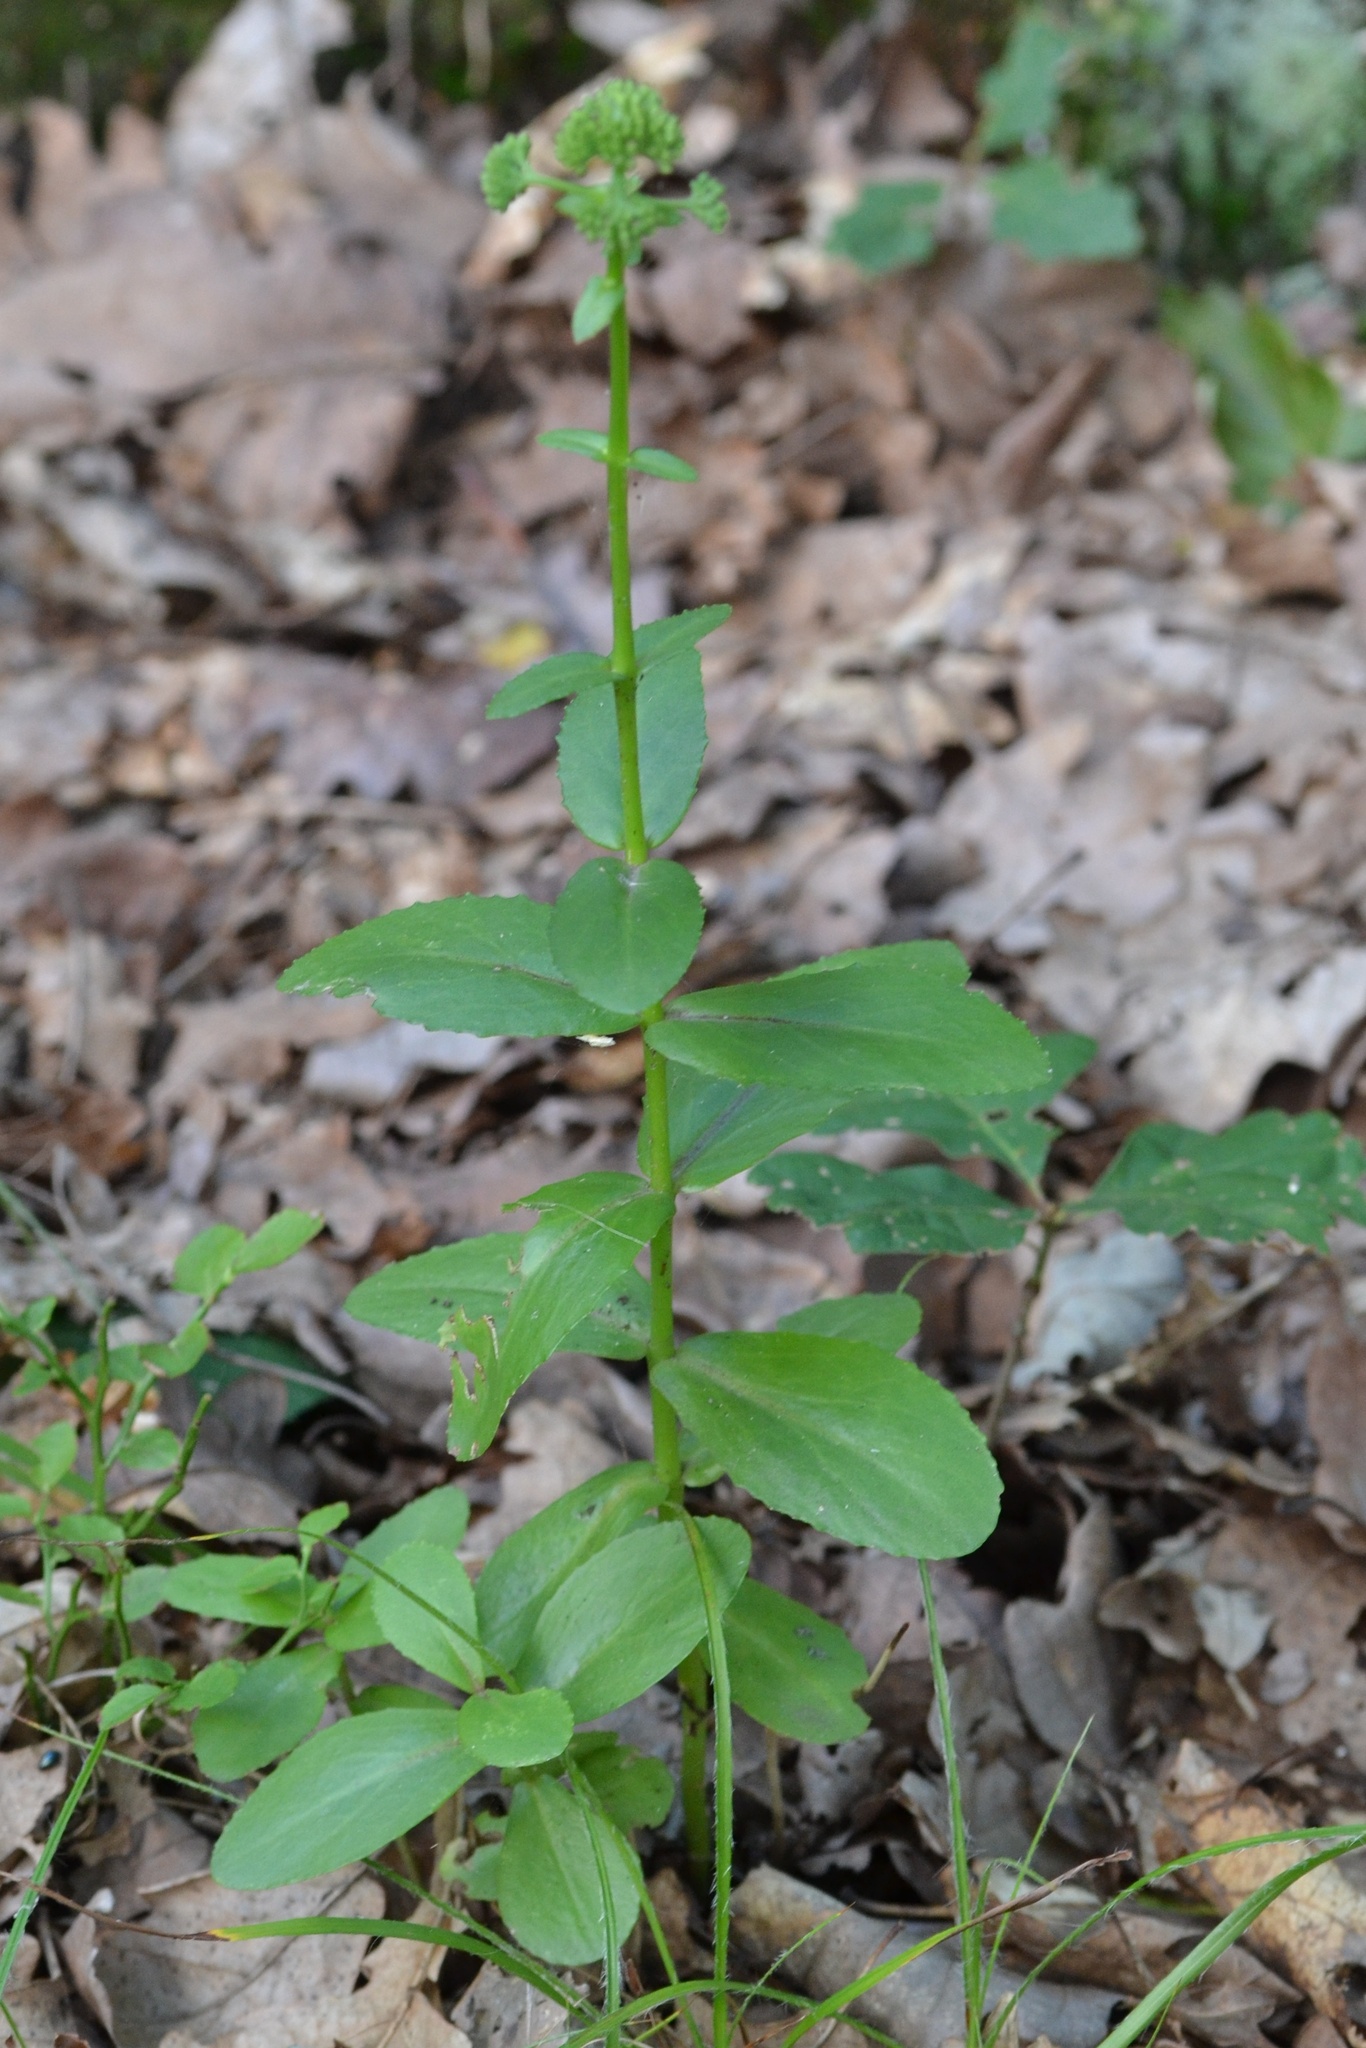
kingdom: Plantae
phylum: Tracheophyta
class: Magnoliopsida
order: Saxifragales
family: Crassulaceae
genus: Hylotelephium
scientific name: Hylotelephium maximum
